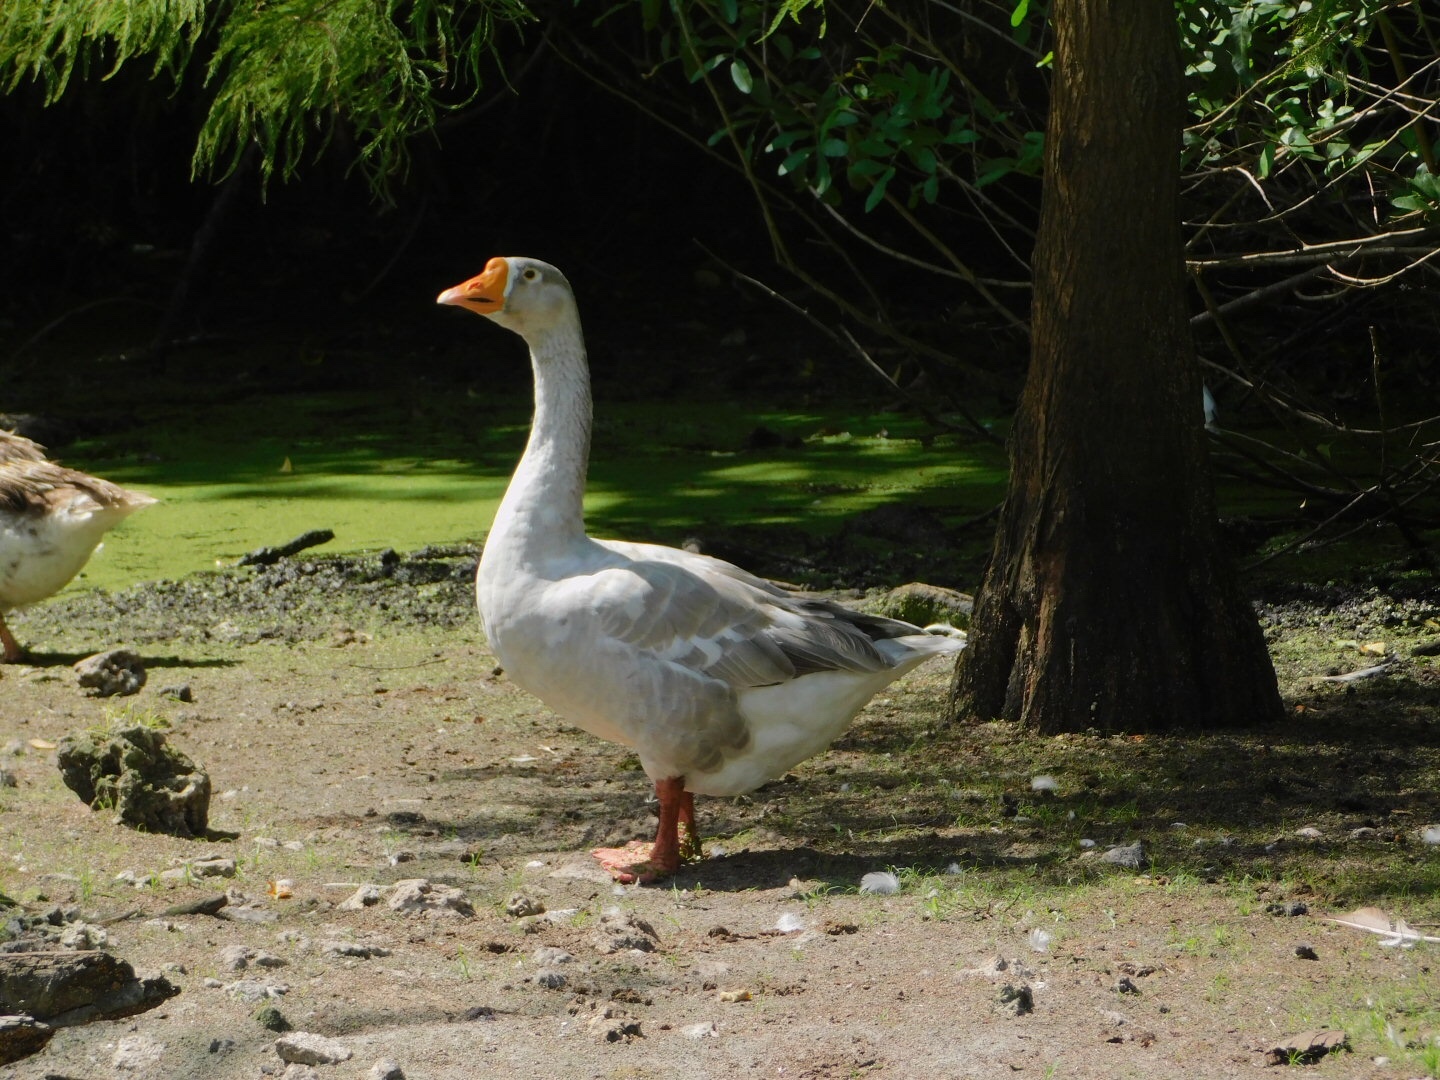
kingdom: Animalia
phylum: Chordata
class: Aves
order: Anseriformes
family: Anatidae
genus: Anser
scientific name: Anser
